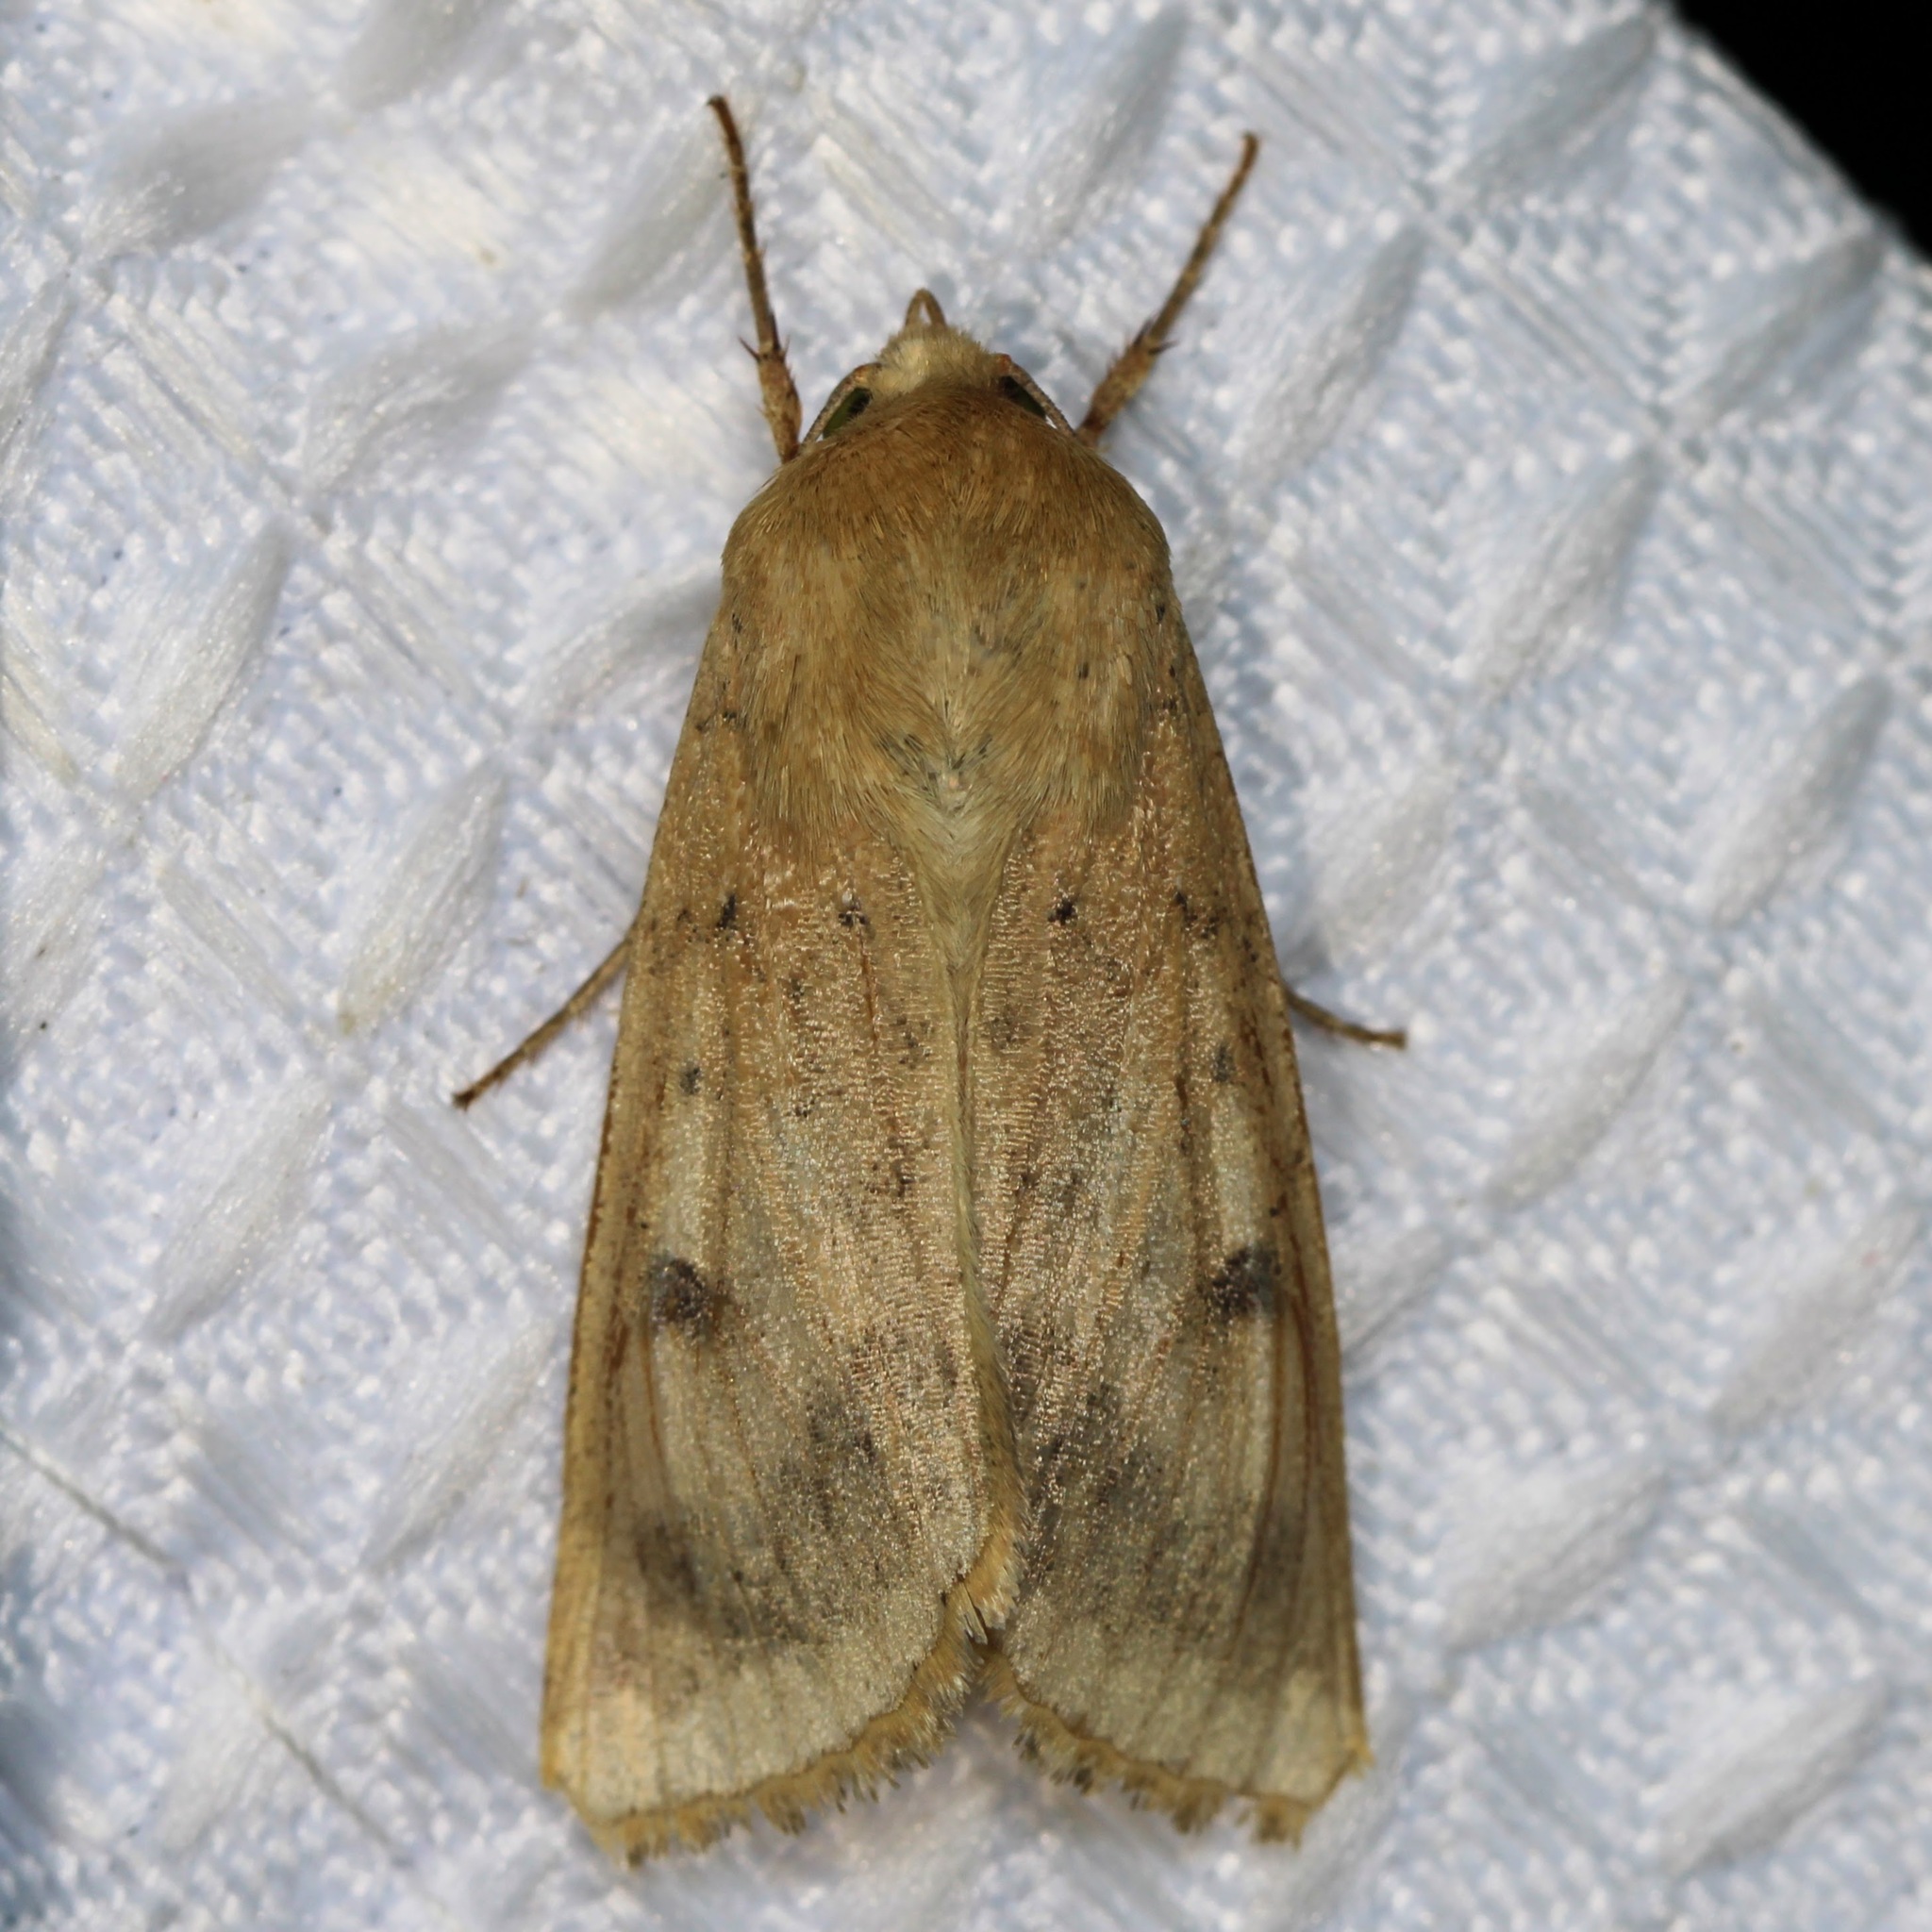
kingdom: Animalia
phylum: Arthropoda
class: Insecta
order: Lepidoptera
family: Noctuidae
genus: Helicoverpa
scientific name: Helicoverpa zea
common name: Bollworm
